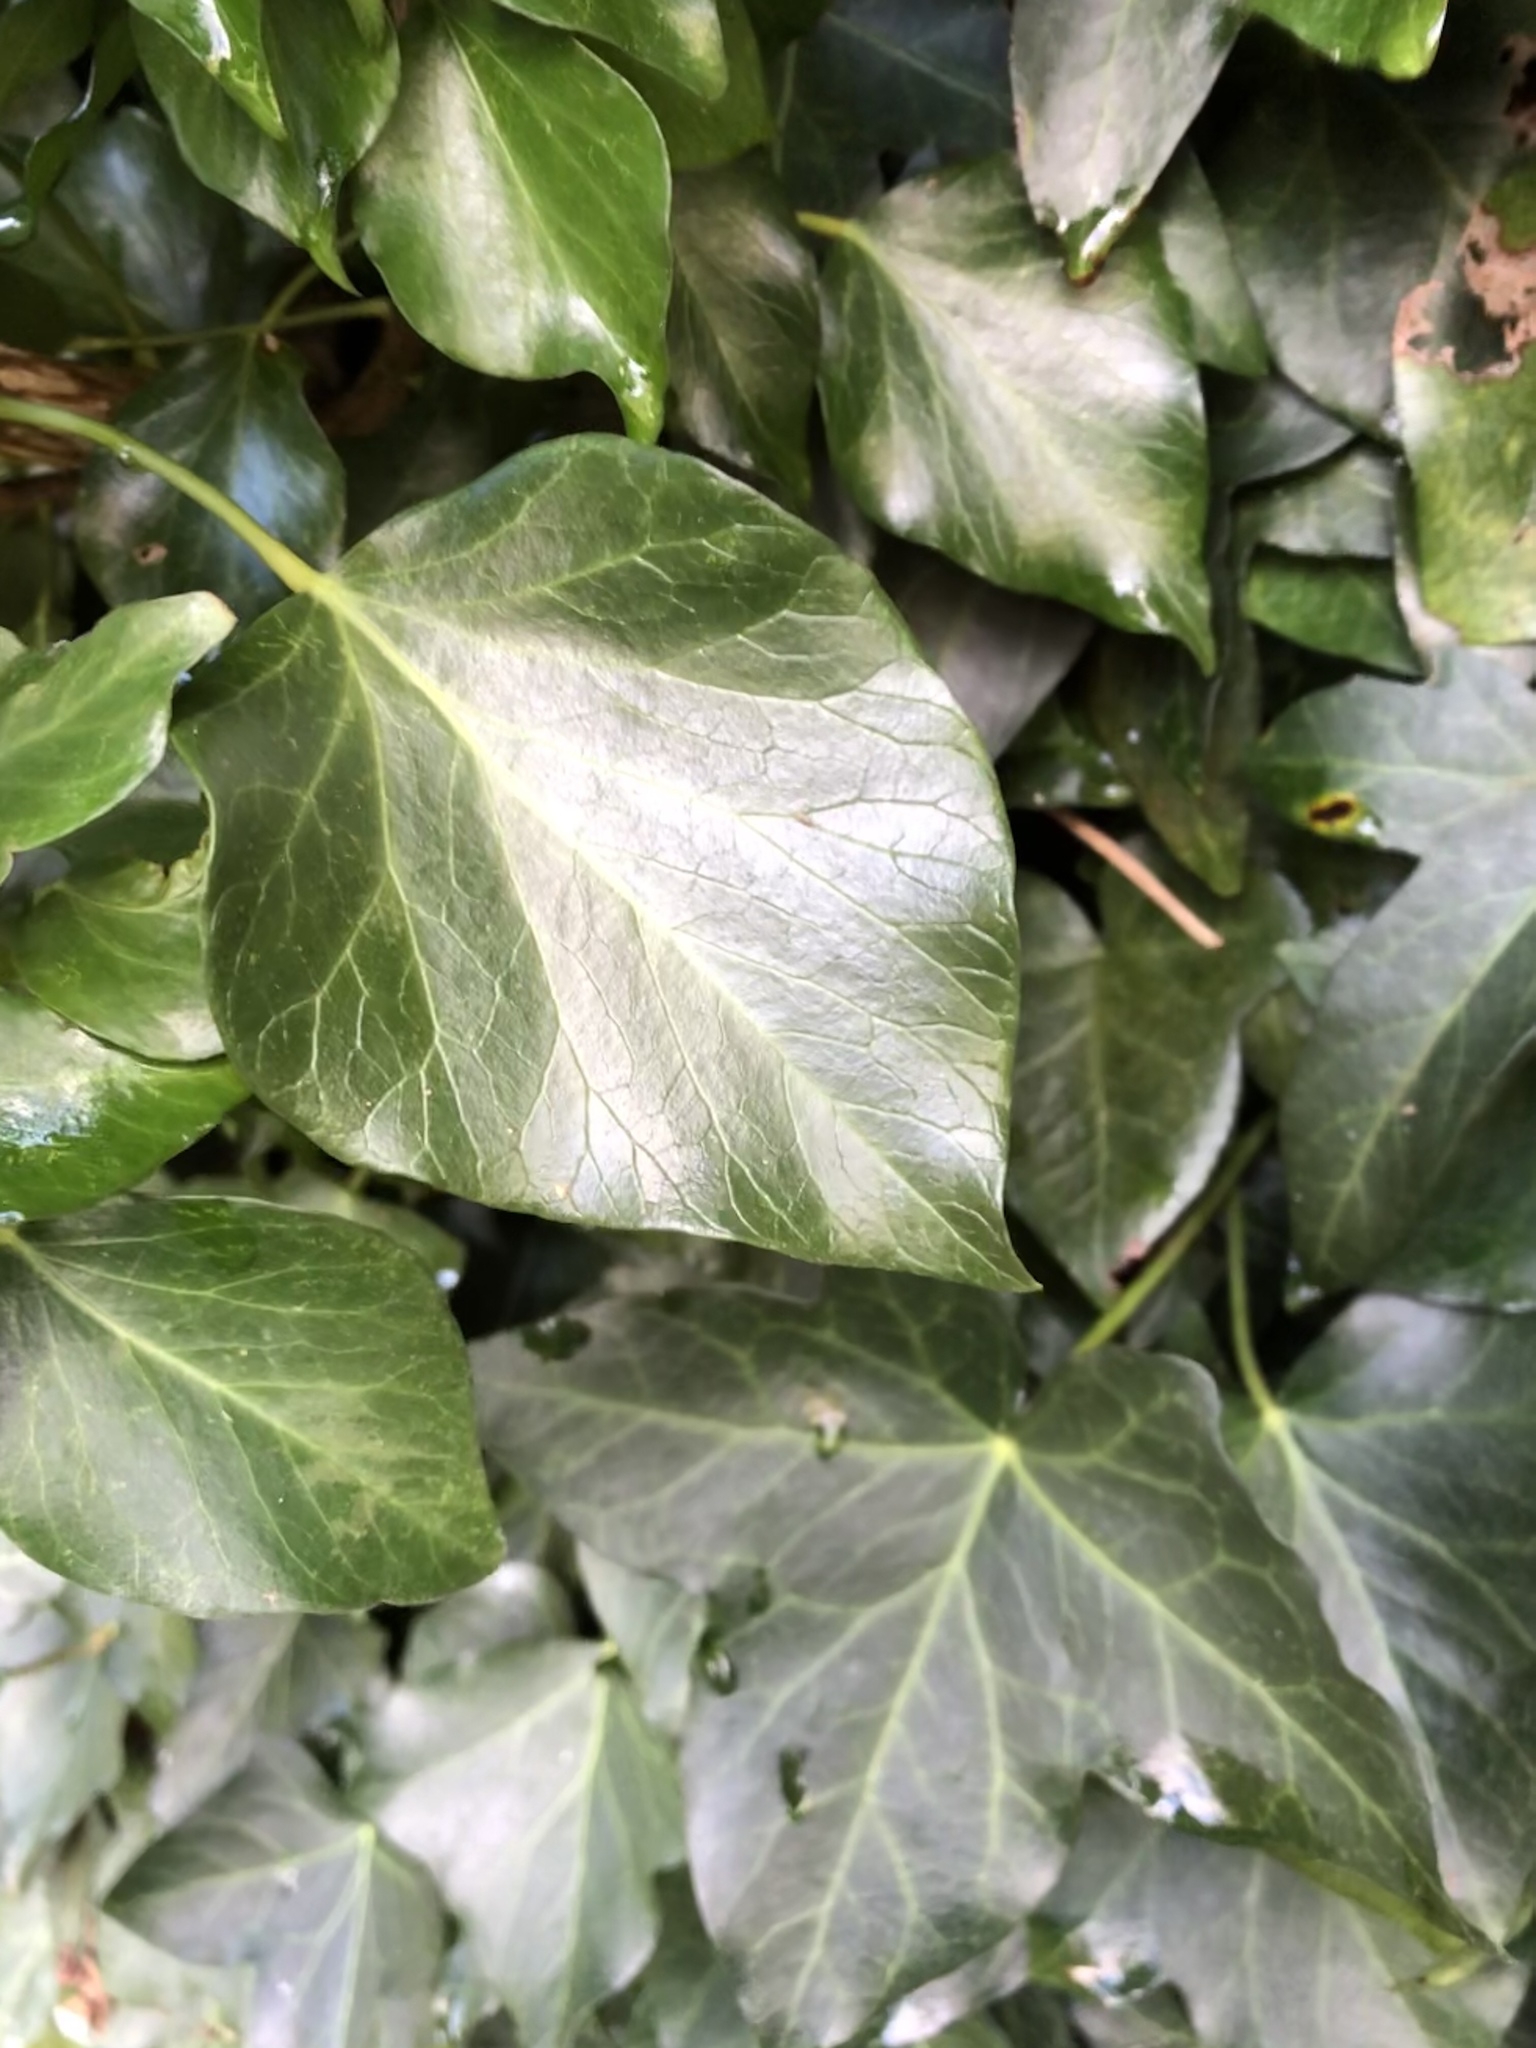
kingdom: Plantae
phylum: Tracheophyta
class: Magnoliopsida
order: Apiales
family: Araliaceae
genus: Hedera
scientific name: Hedera helix
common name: Ivy
